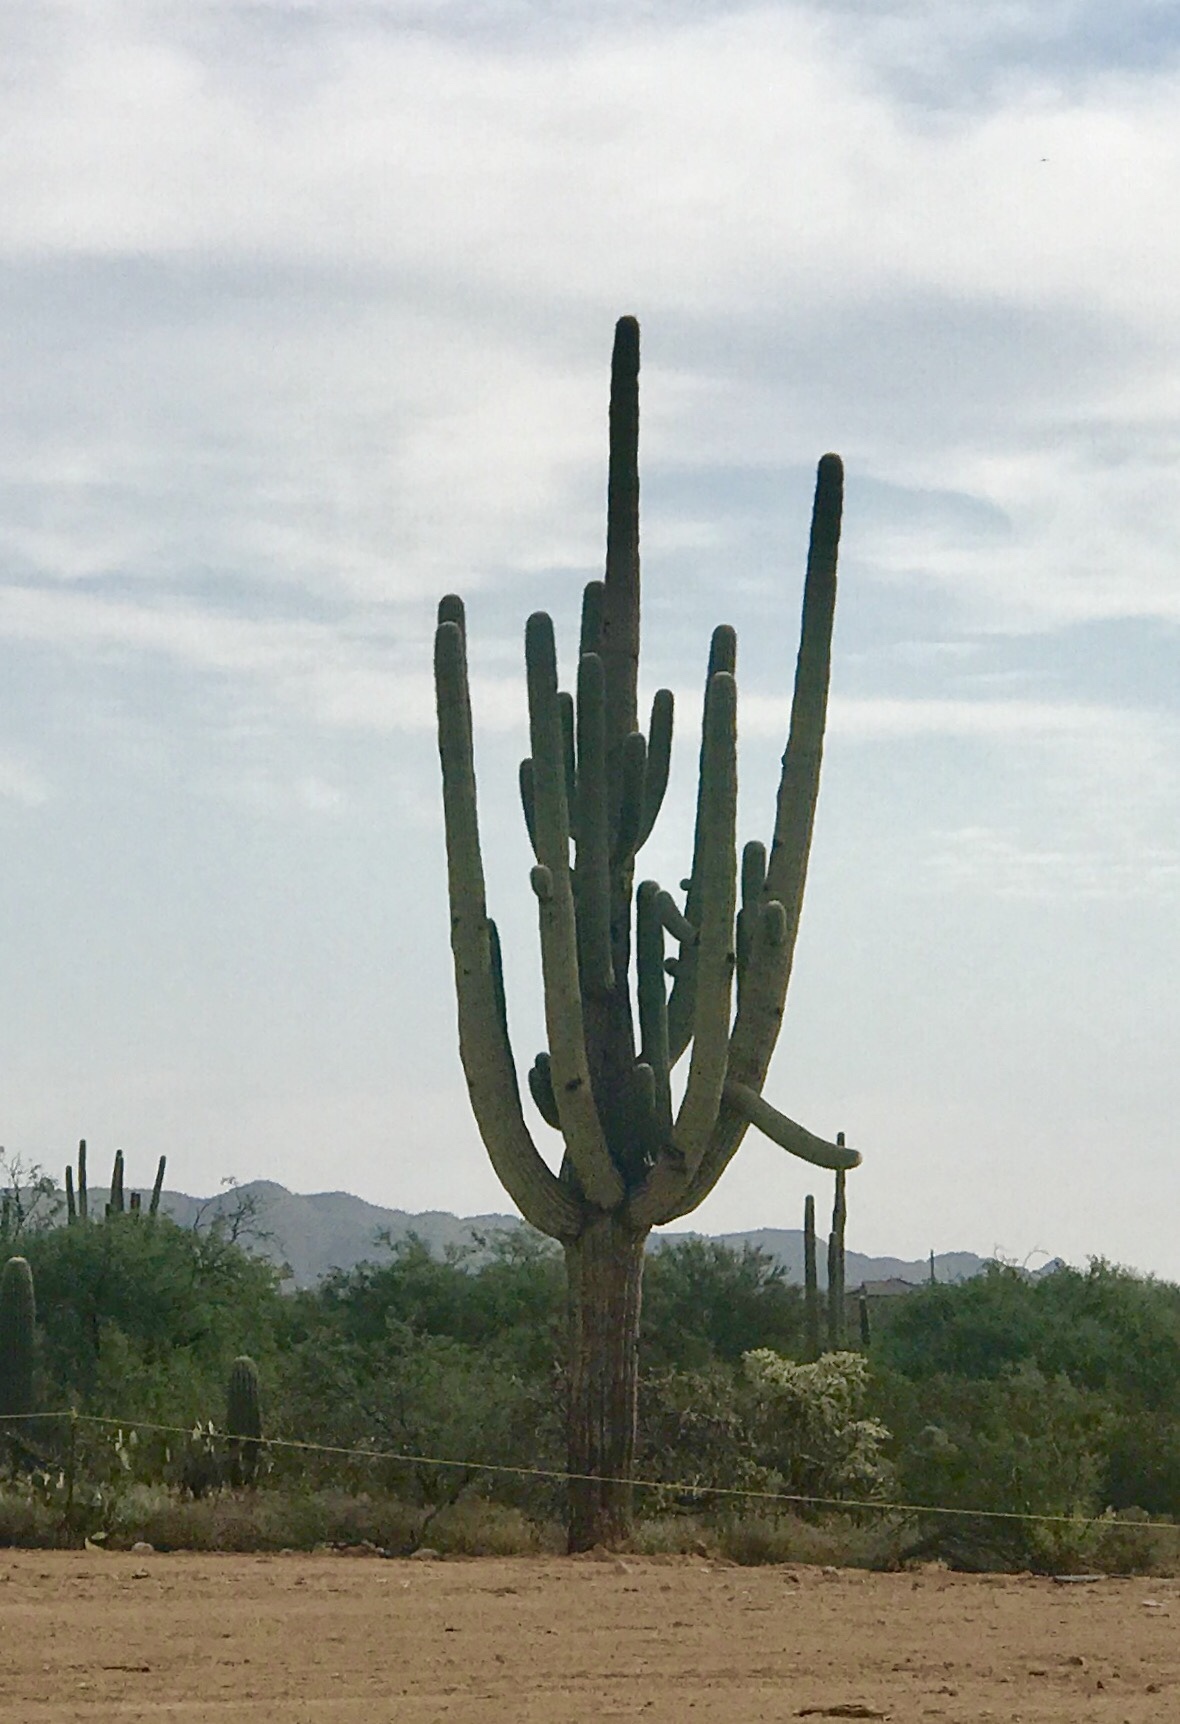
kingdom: Plantae
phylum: Tracheophyta
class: Magnoliopsida
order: Caryophyllales
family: Cactaceae
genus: Carnegiea
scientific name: Carnegiea gigantea
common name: Saguaro
